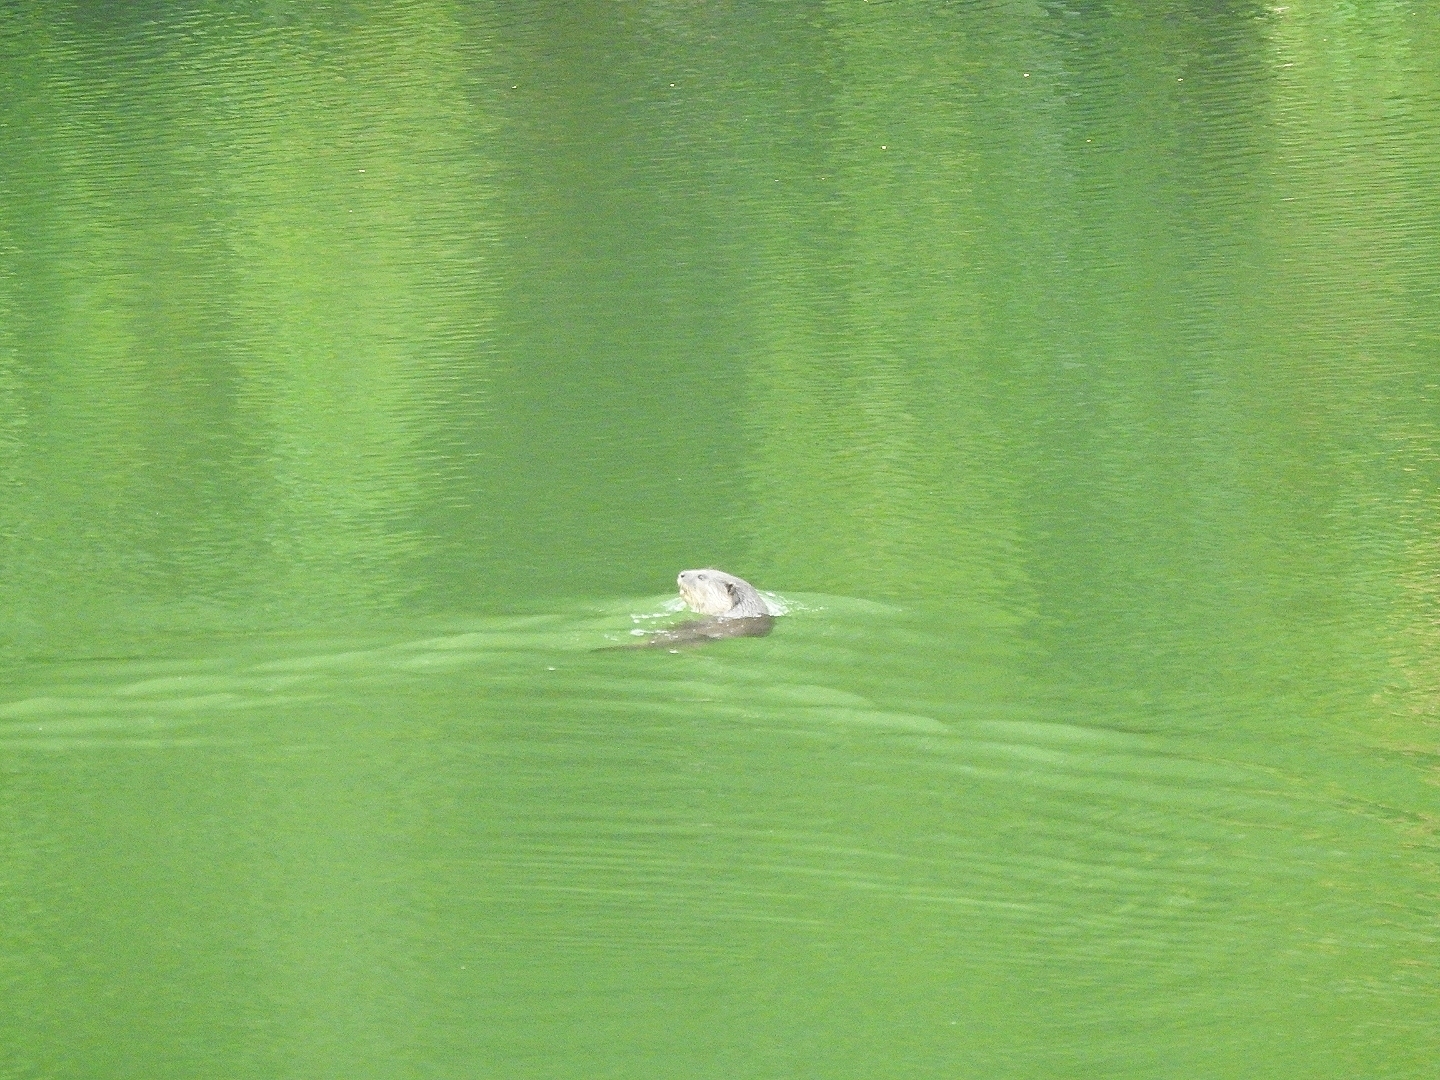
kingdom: Animalia
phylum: Chordata
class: Mammalia
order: Carnivora
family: Mustelidae
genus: Lutrogale
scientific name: Lutrogale perspicillata
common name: Smooth-coated otter
